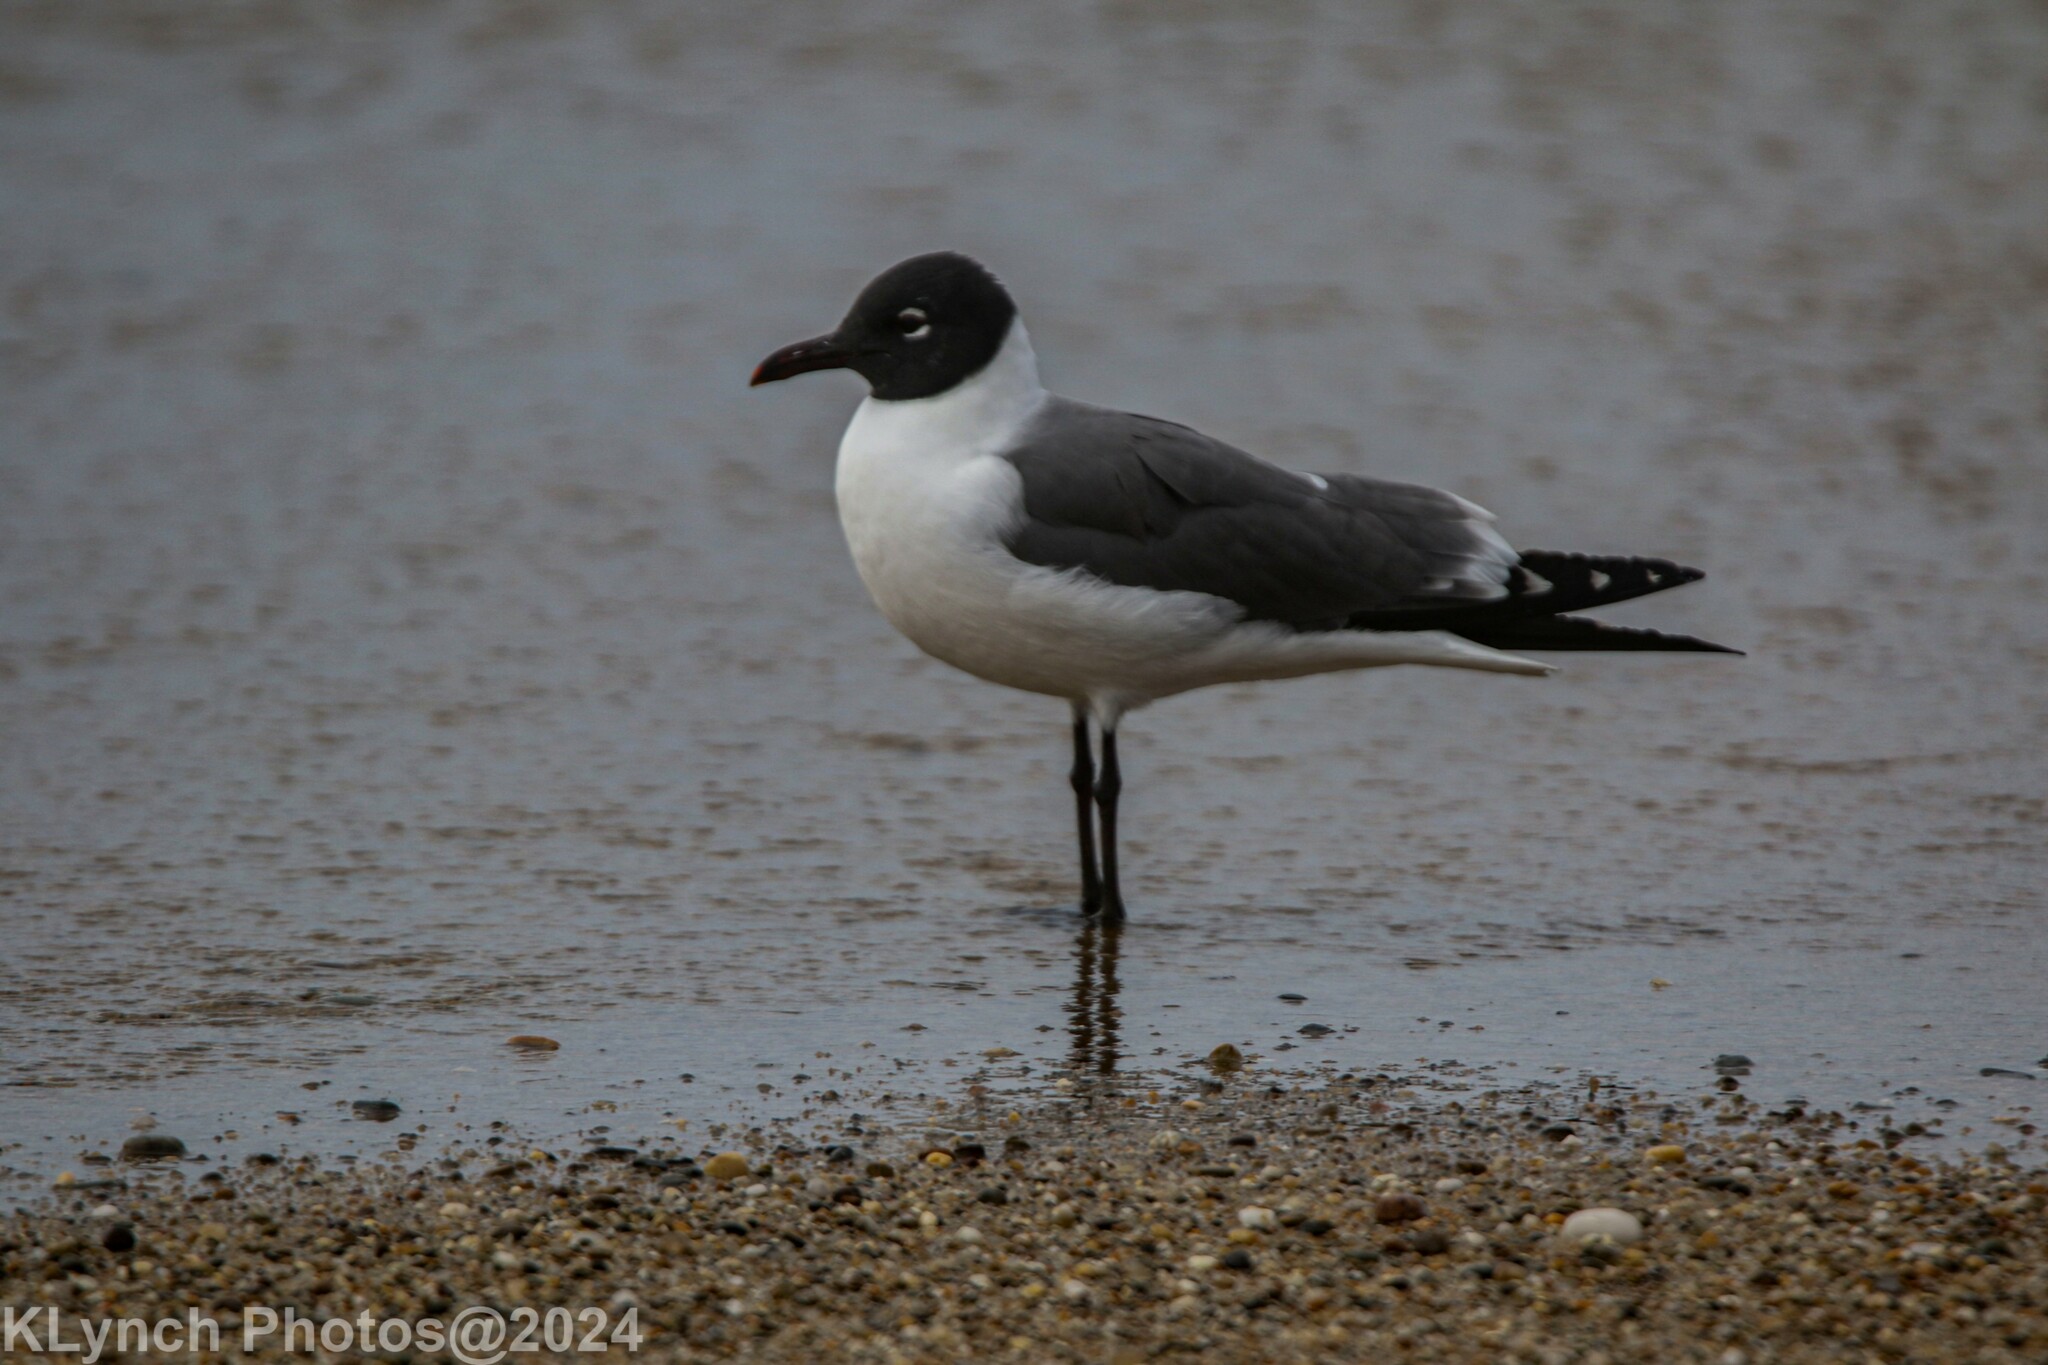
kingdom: Animalia
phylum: Chordata
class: Aves
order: Charadriiformes
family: Laridae
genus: Leucophaeus
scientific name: Leucophaeus atricilla
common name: Laughing gull
